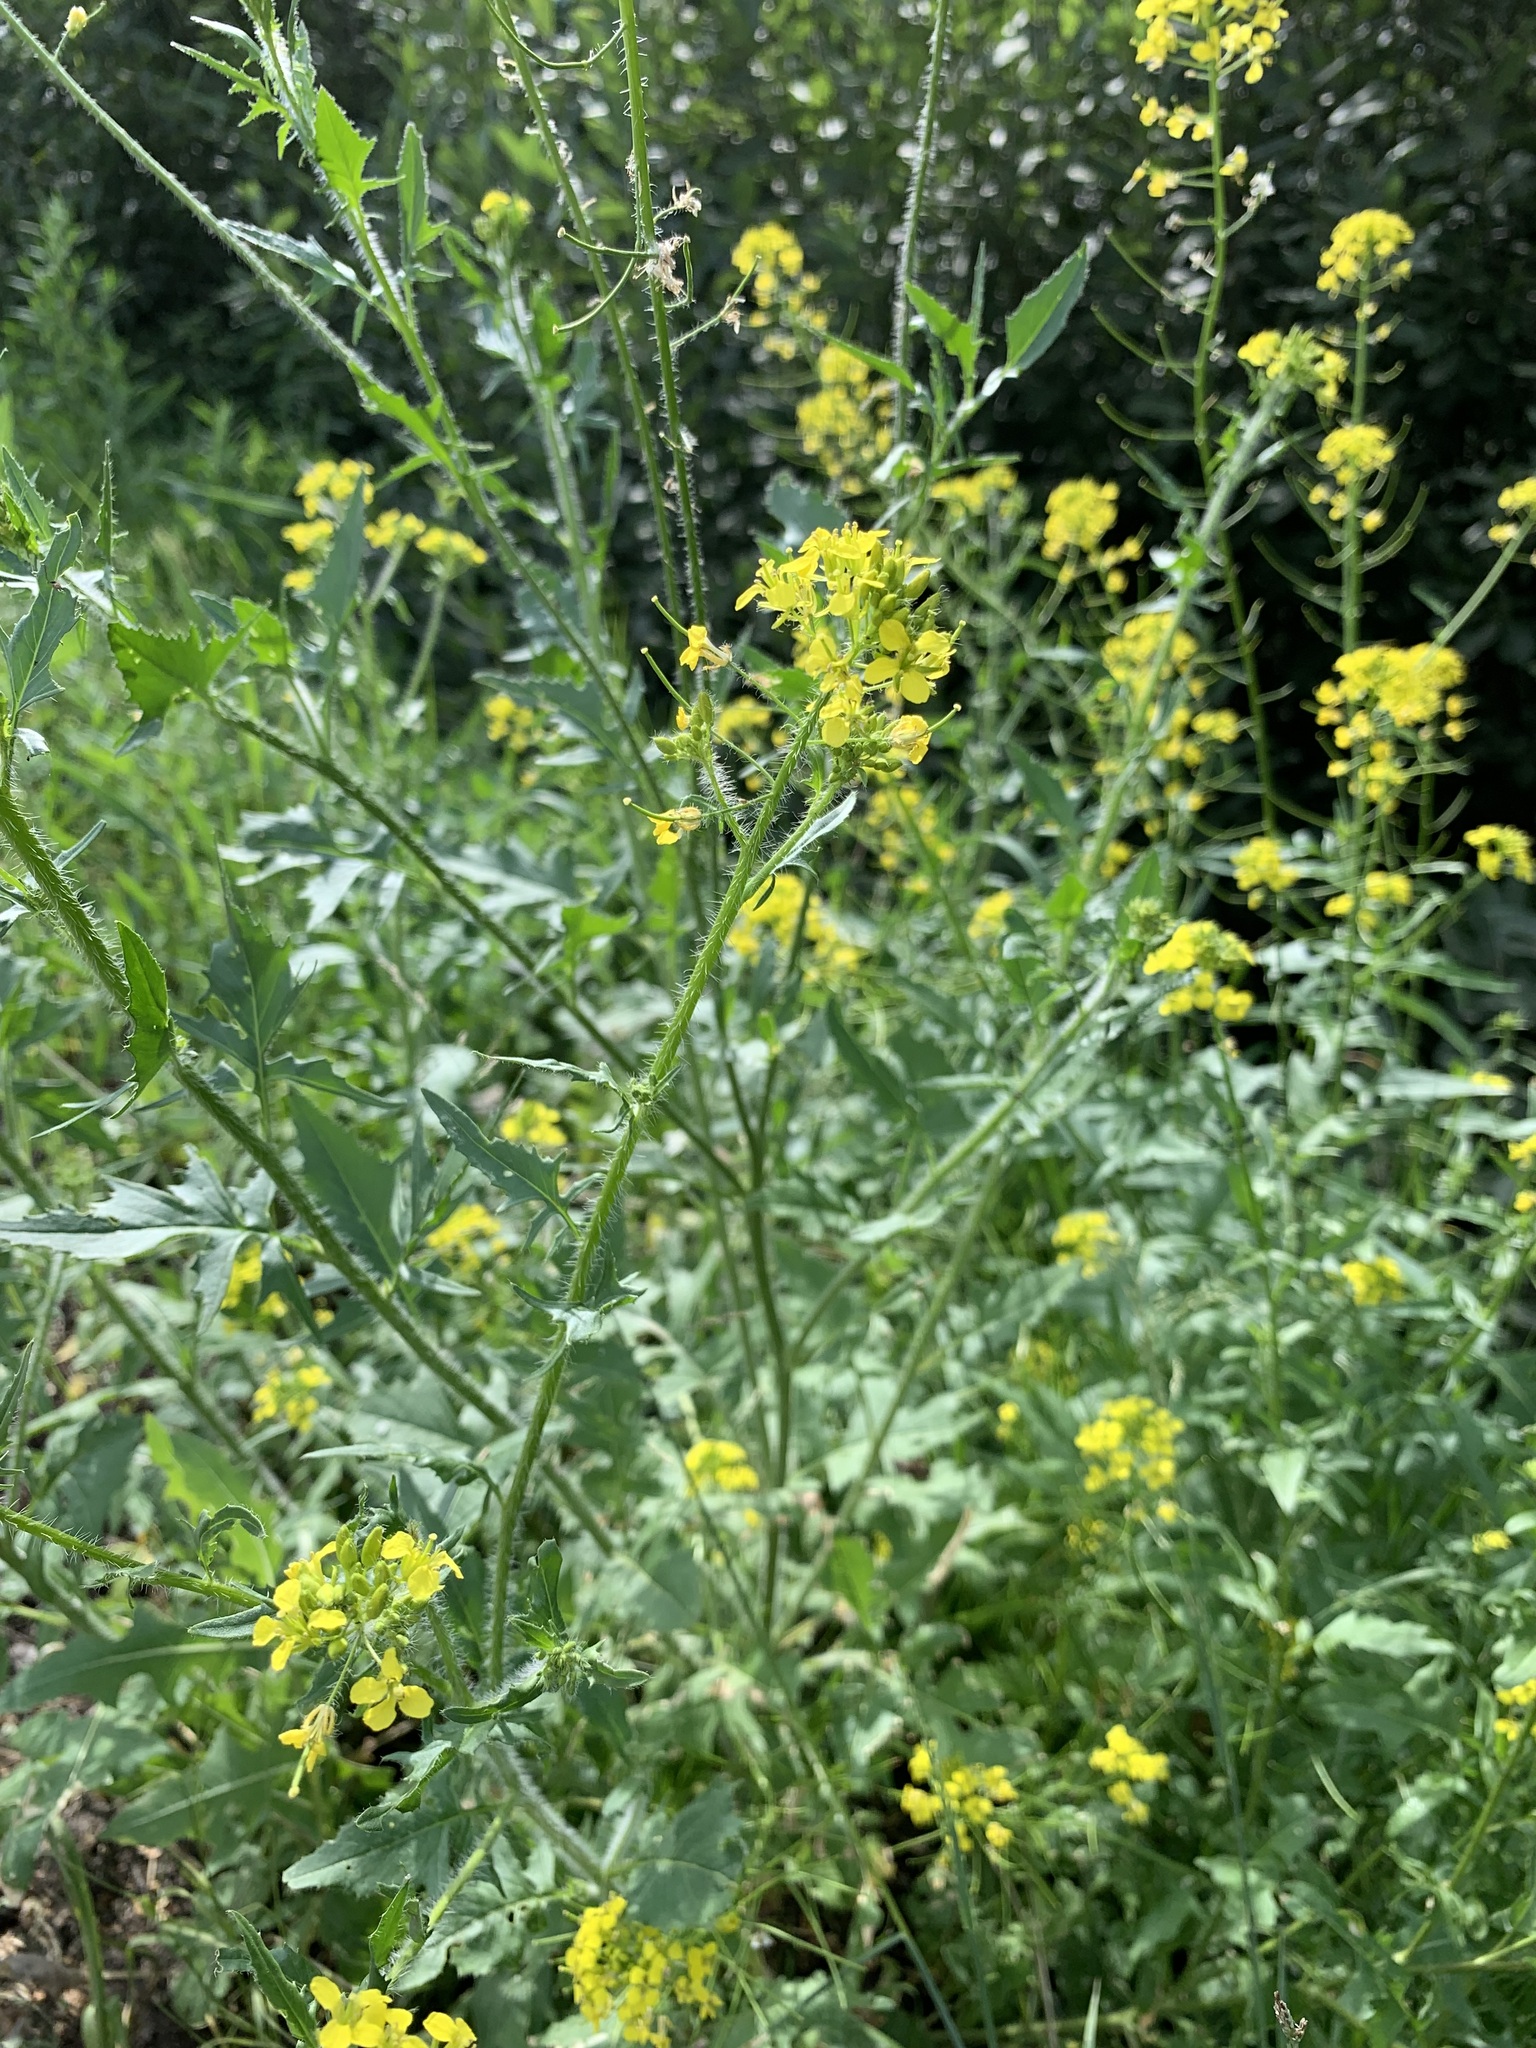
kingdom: Plantae
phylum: Tracheophyta
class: Magnoliopsida
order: Brassicales
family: Brassicaceae
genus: Sisymbrium
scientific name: Sisymbrium loeselii
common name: False london-rocket
